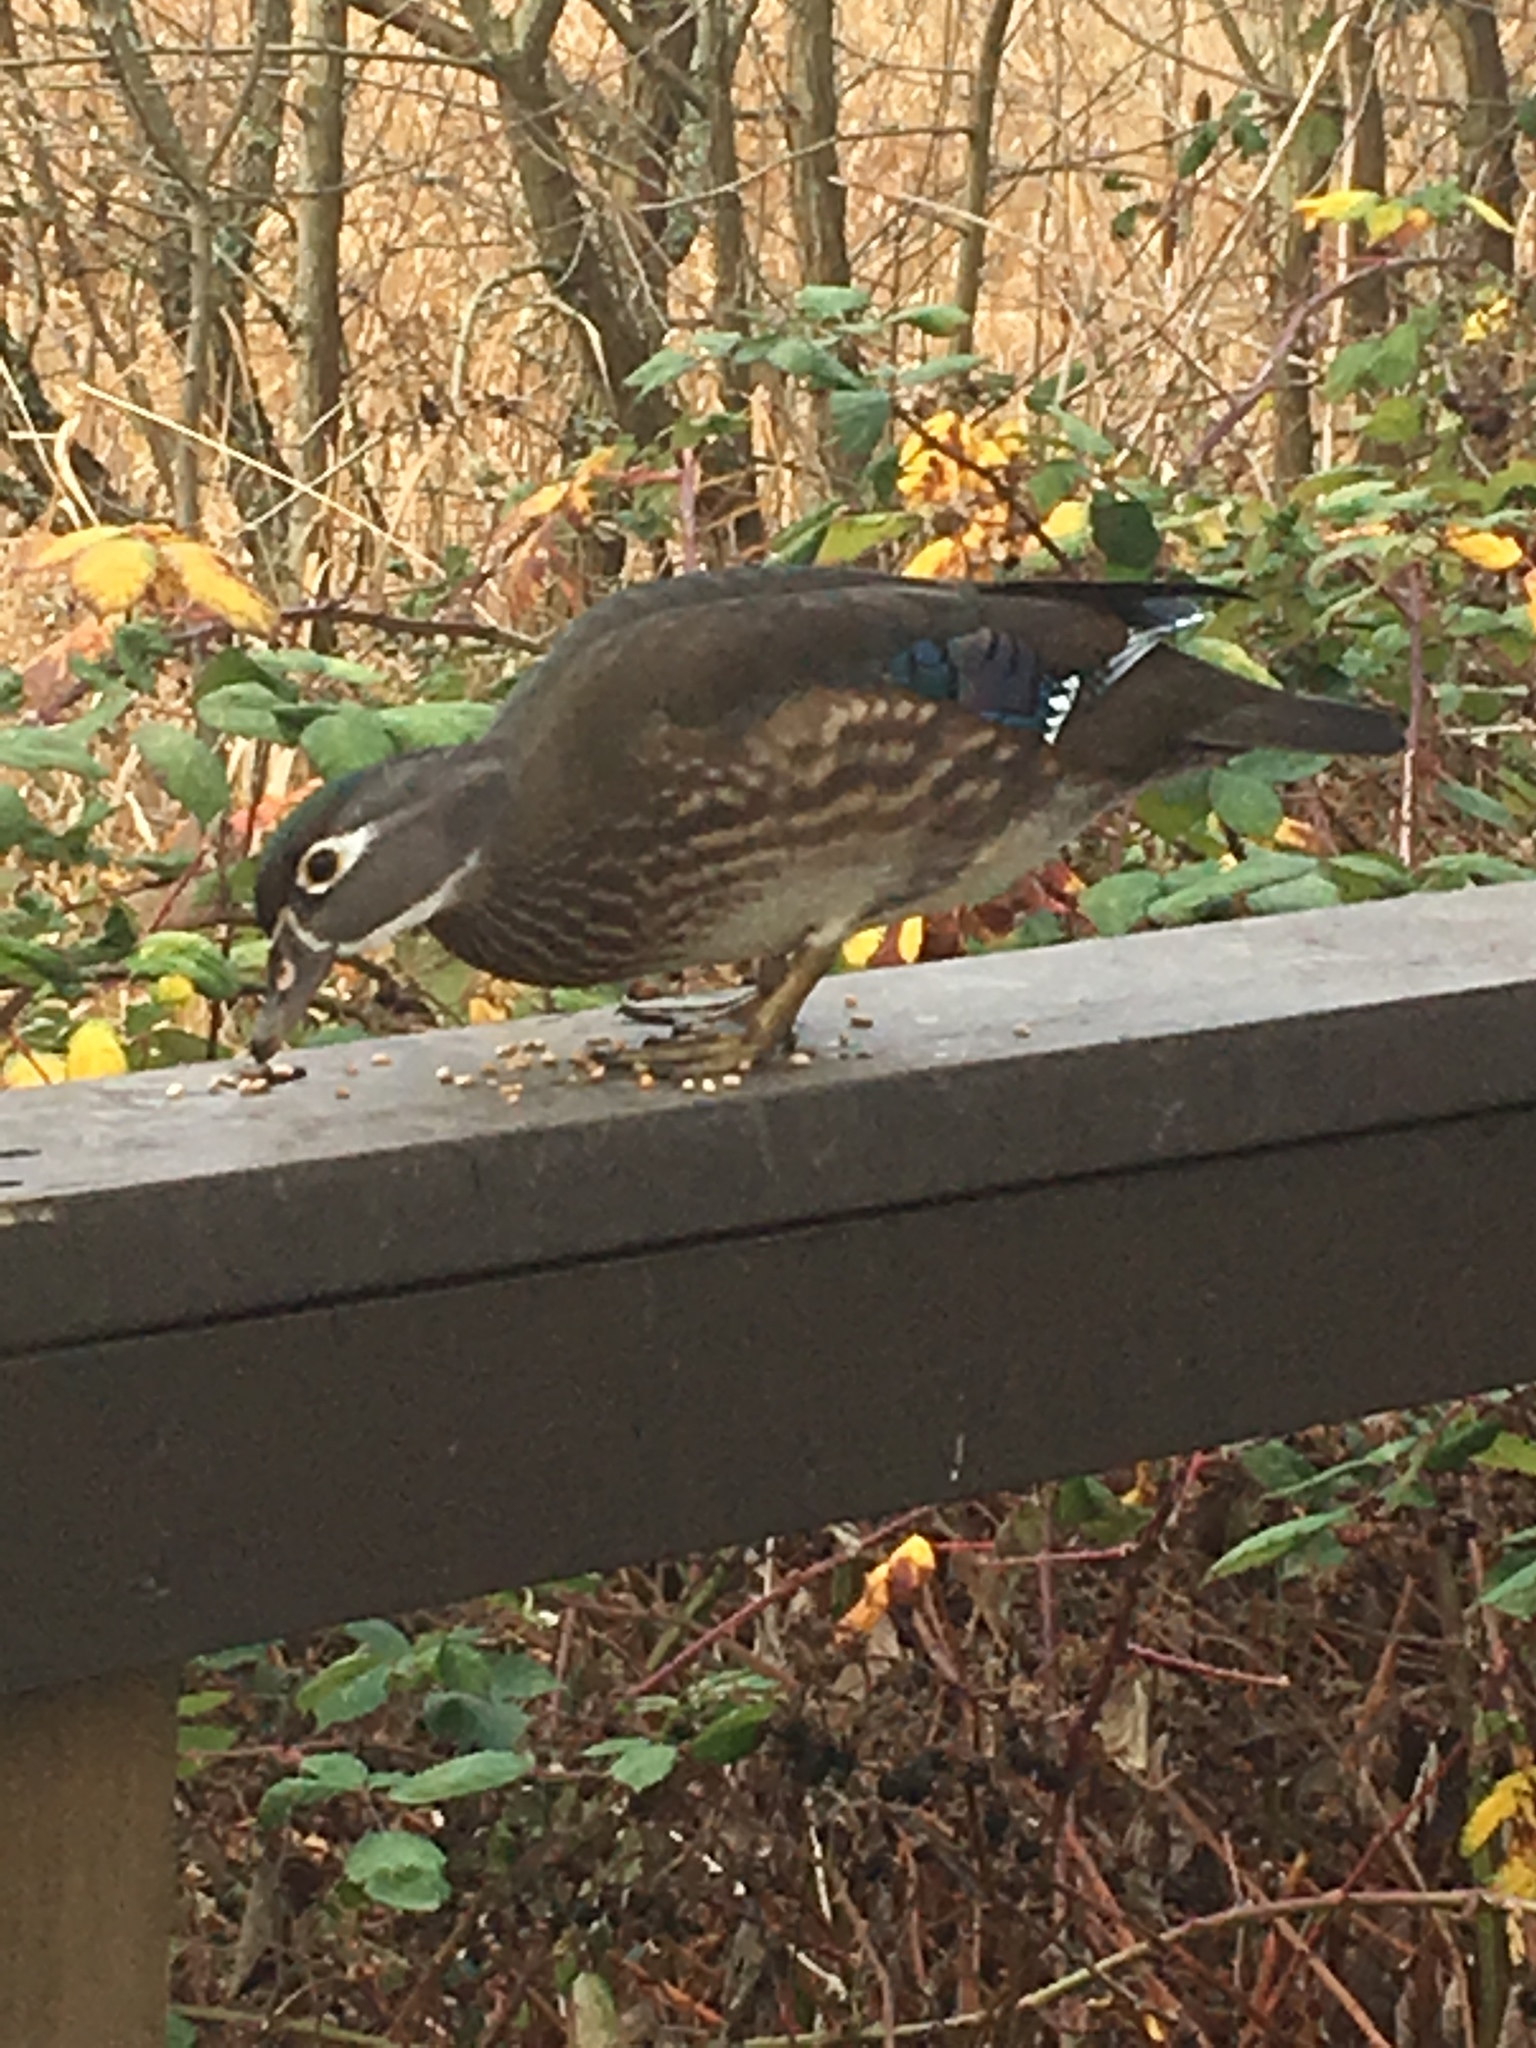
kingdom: Animalia
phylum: Chordata
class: Aves
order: Anseriformes
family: Anatidae
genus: Aix
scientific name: Aix sponsa
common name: Wood duck
